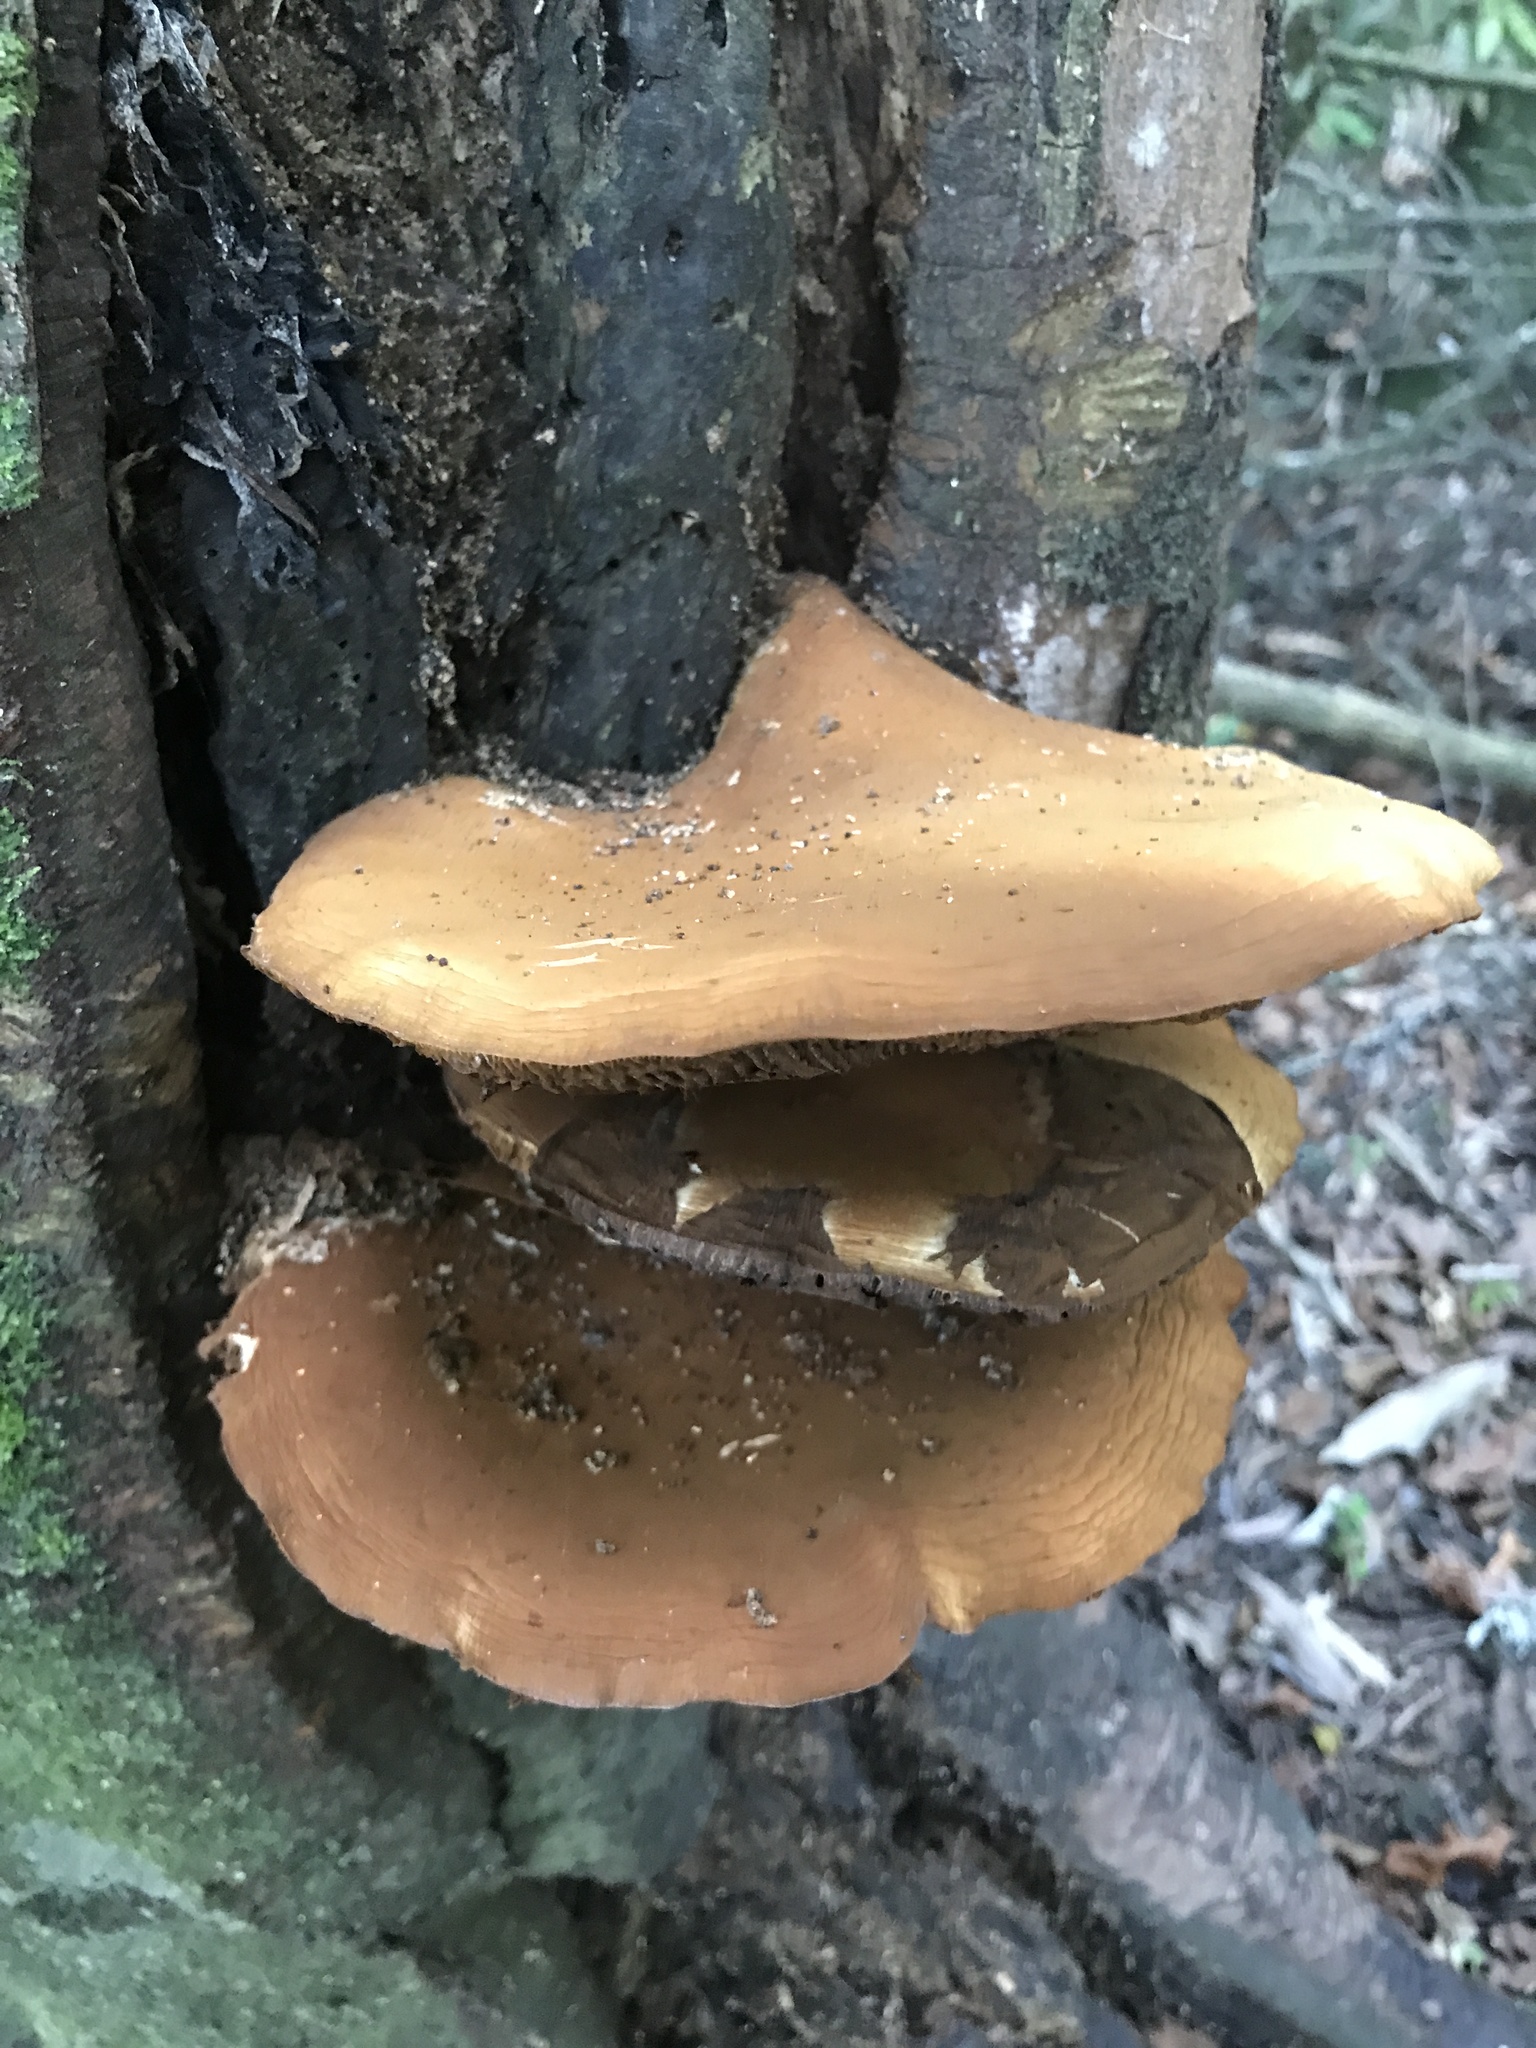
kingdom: Fungi
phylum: Basidiomycota
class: Agaricomycetes
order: Agaricales
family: Tubariaceae
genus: Cyclocybe
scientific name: Cyclocybe parasitica
